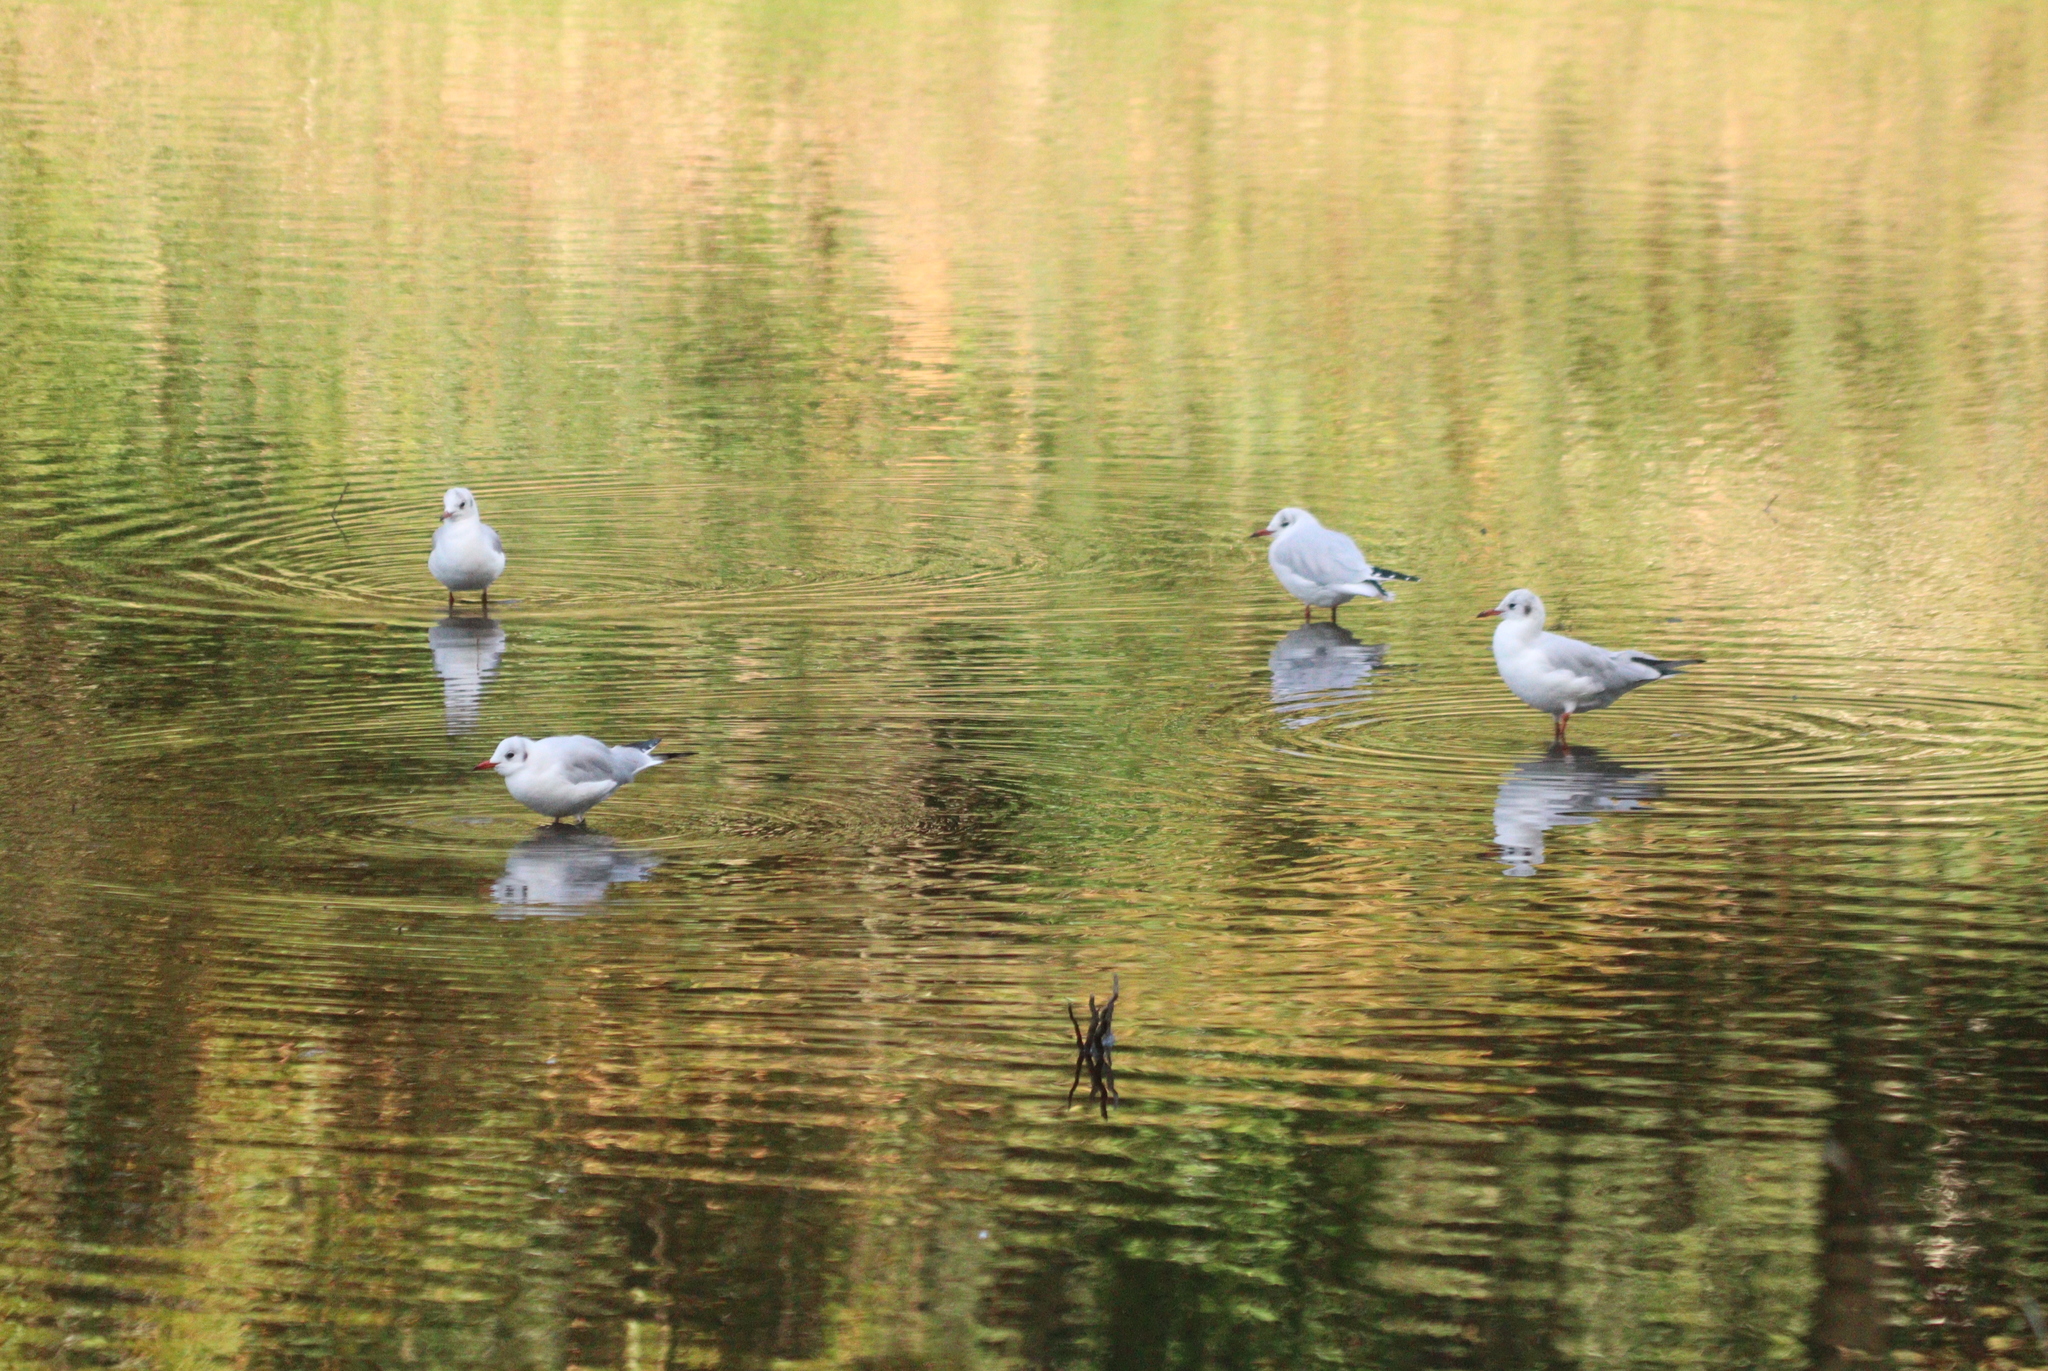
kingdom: Animalia
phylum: Chordata
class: Aves
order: Charadriiformes
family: Laridae
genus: Chroicocephalus
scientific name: Chroicocephalus ridibundus
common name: Black-headed gull
